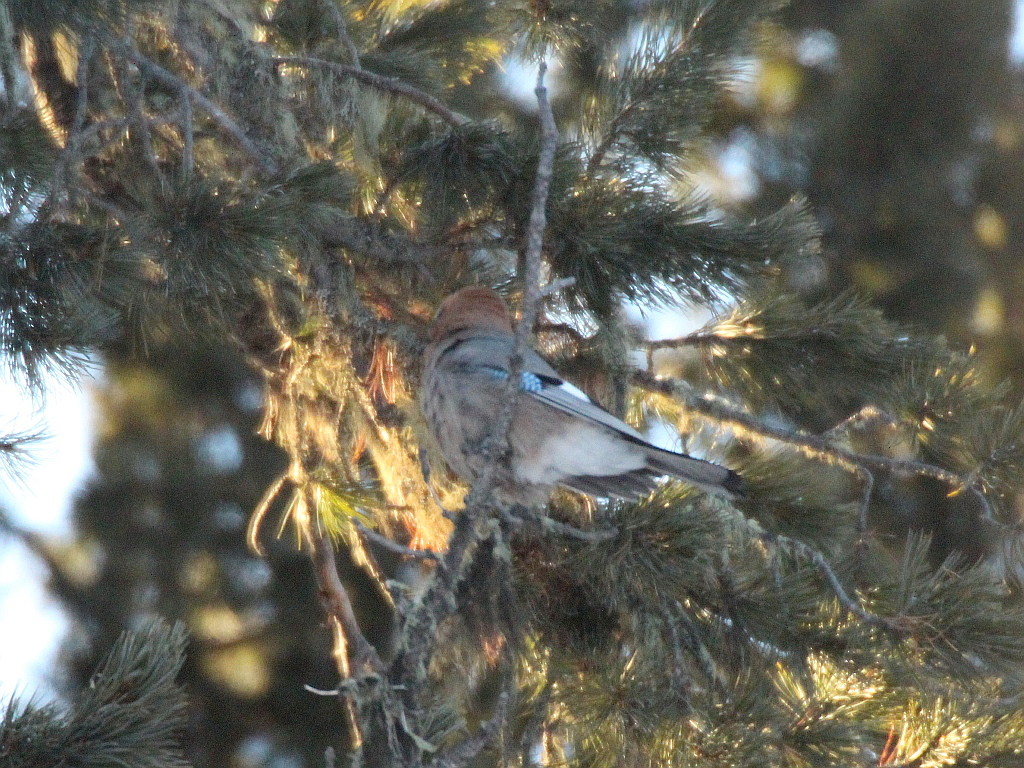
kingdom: Animalia
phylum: Chordata
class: Aves
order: Passeriformes
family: Corvidae
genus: Garrulus
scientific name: Garrulus glandarius
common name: Eurasian jay
